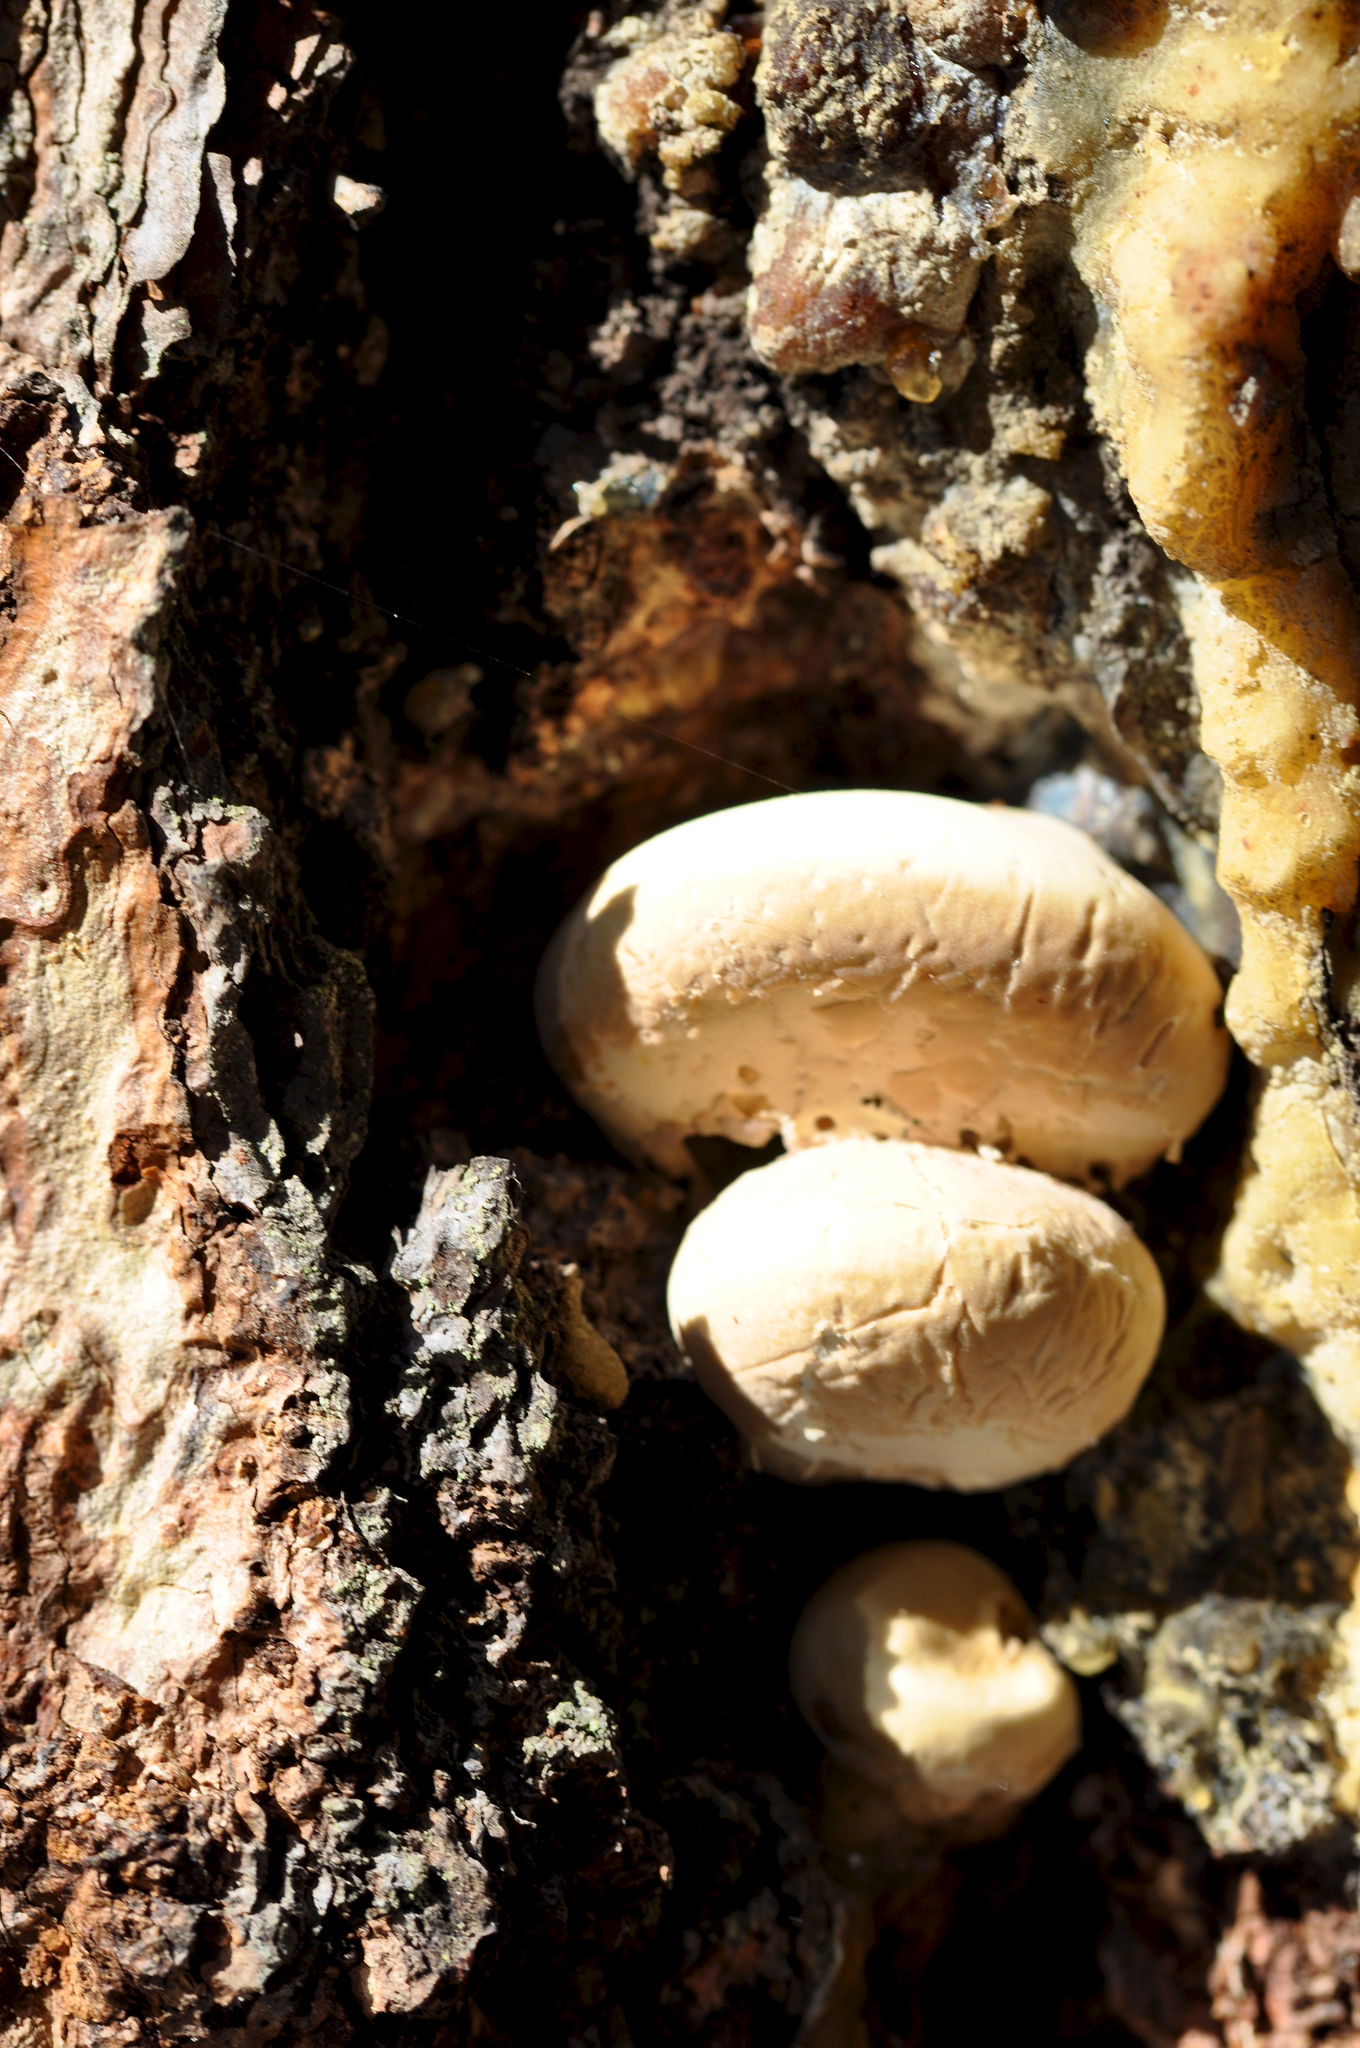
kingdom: Fungi
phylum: Basidiomycota
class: Agaricomycetes
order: Polyporales
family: Polyporaceae
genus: Cryptoporus
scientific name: Cryptoporus volvatus
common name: Veiled polypore
